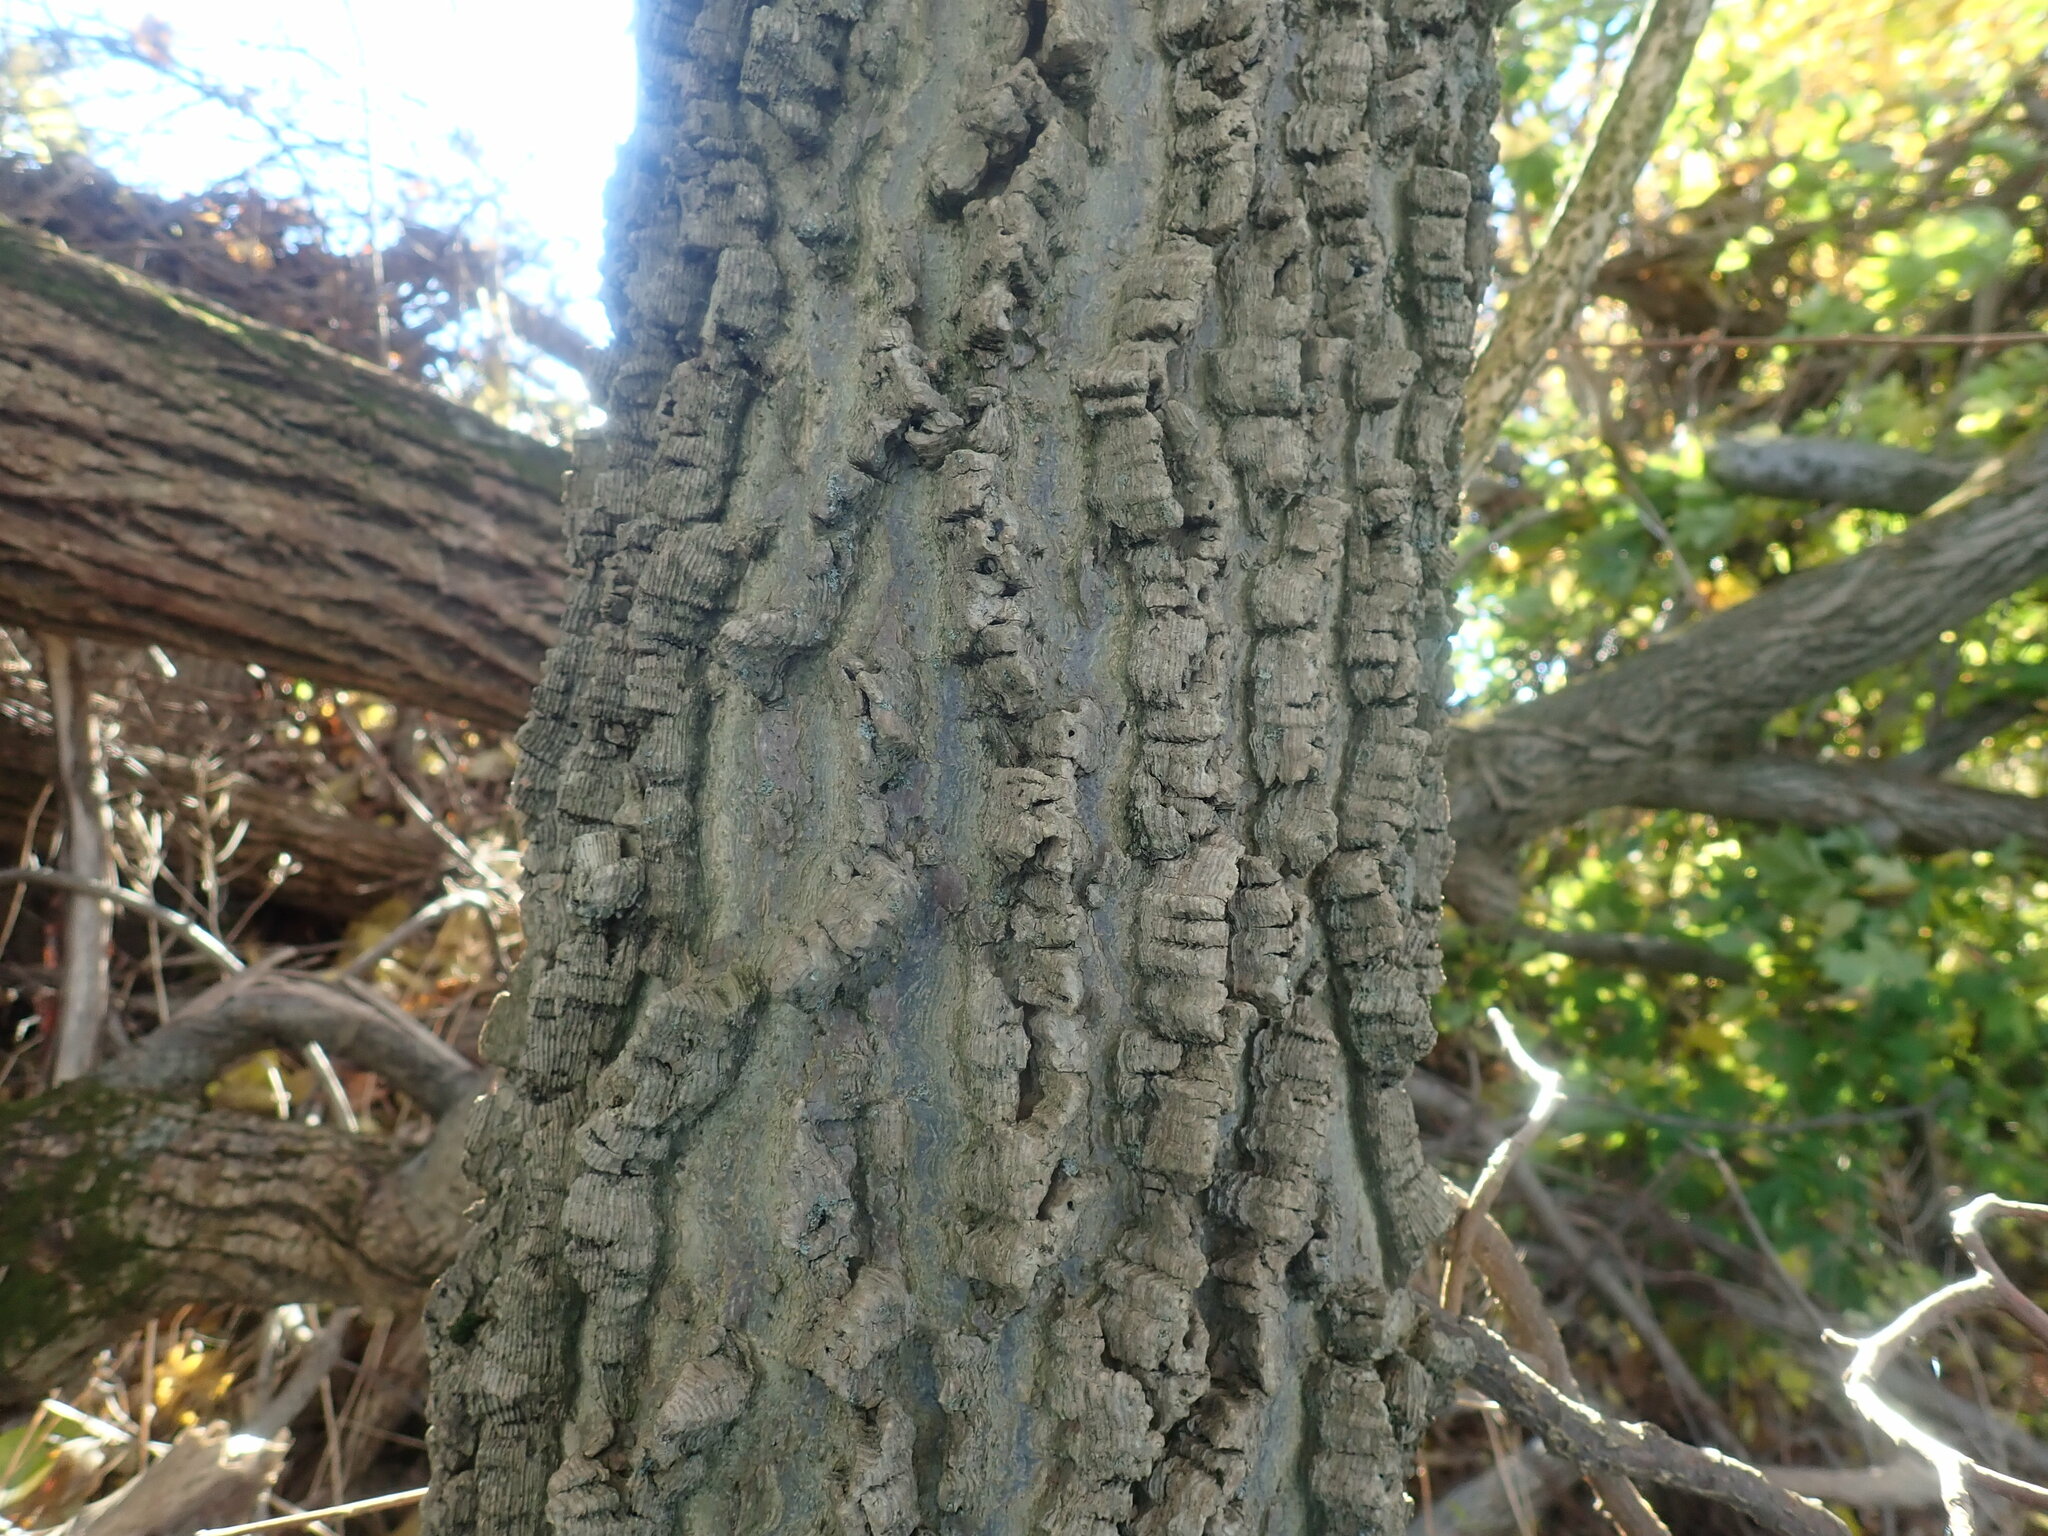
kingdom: Plantae
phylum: Tracheophyta
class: Magnoliopsida
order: Rosales
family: Cannabaceae
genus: Celtis
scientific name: Celtis occidentalis
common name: Common hackberry
